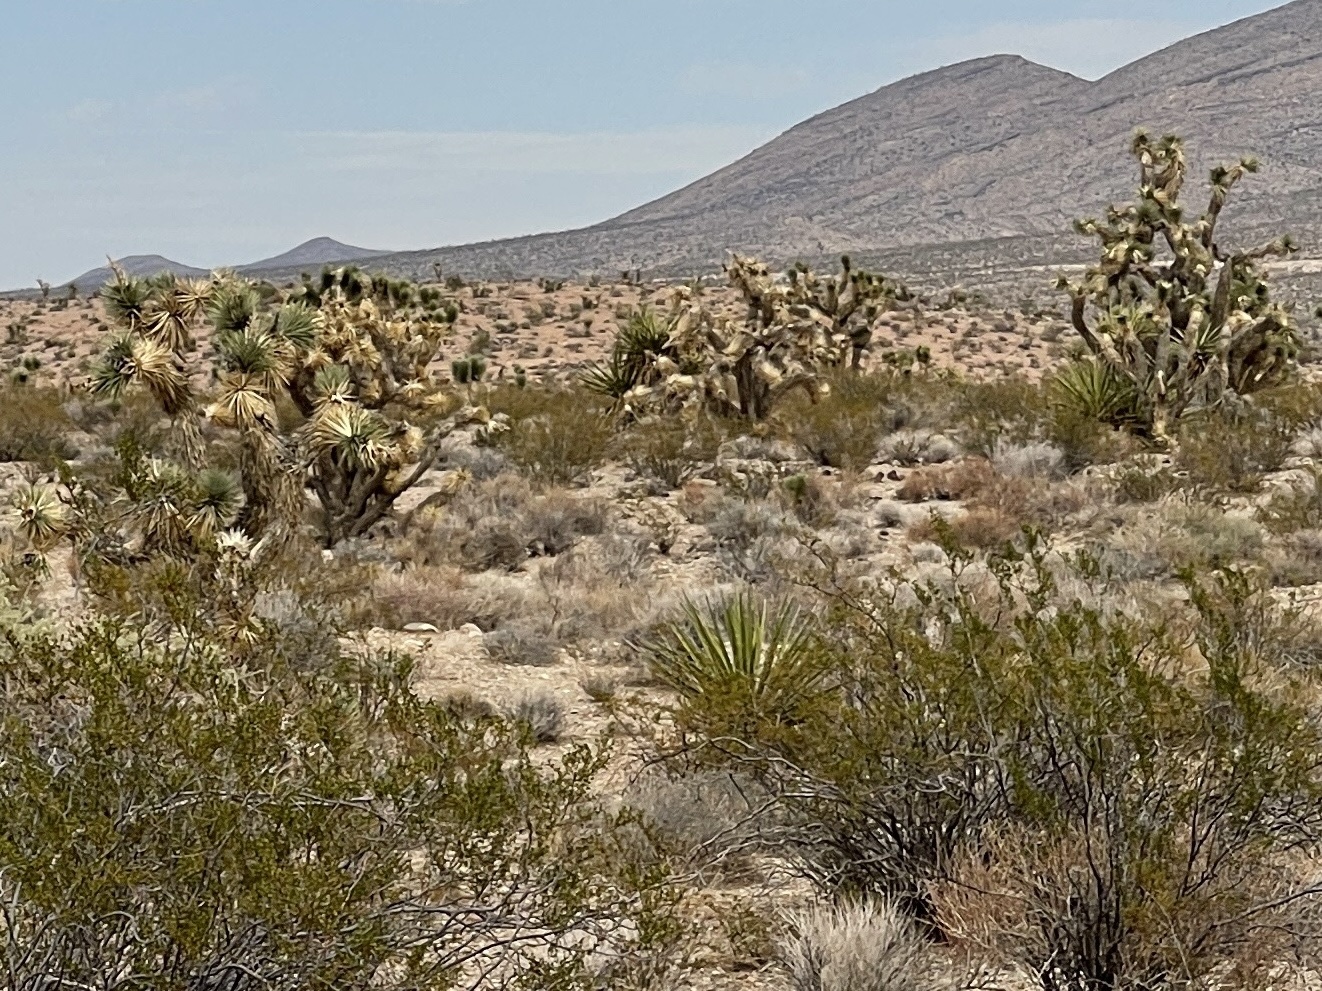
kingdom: Plantae
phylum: Tracheophyta
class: Liliopsida
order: Asparagales
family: Asparagaceae
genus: Yucca
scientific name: Yucca brevifolia
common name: Joshua tree
